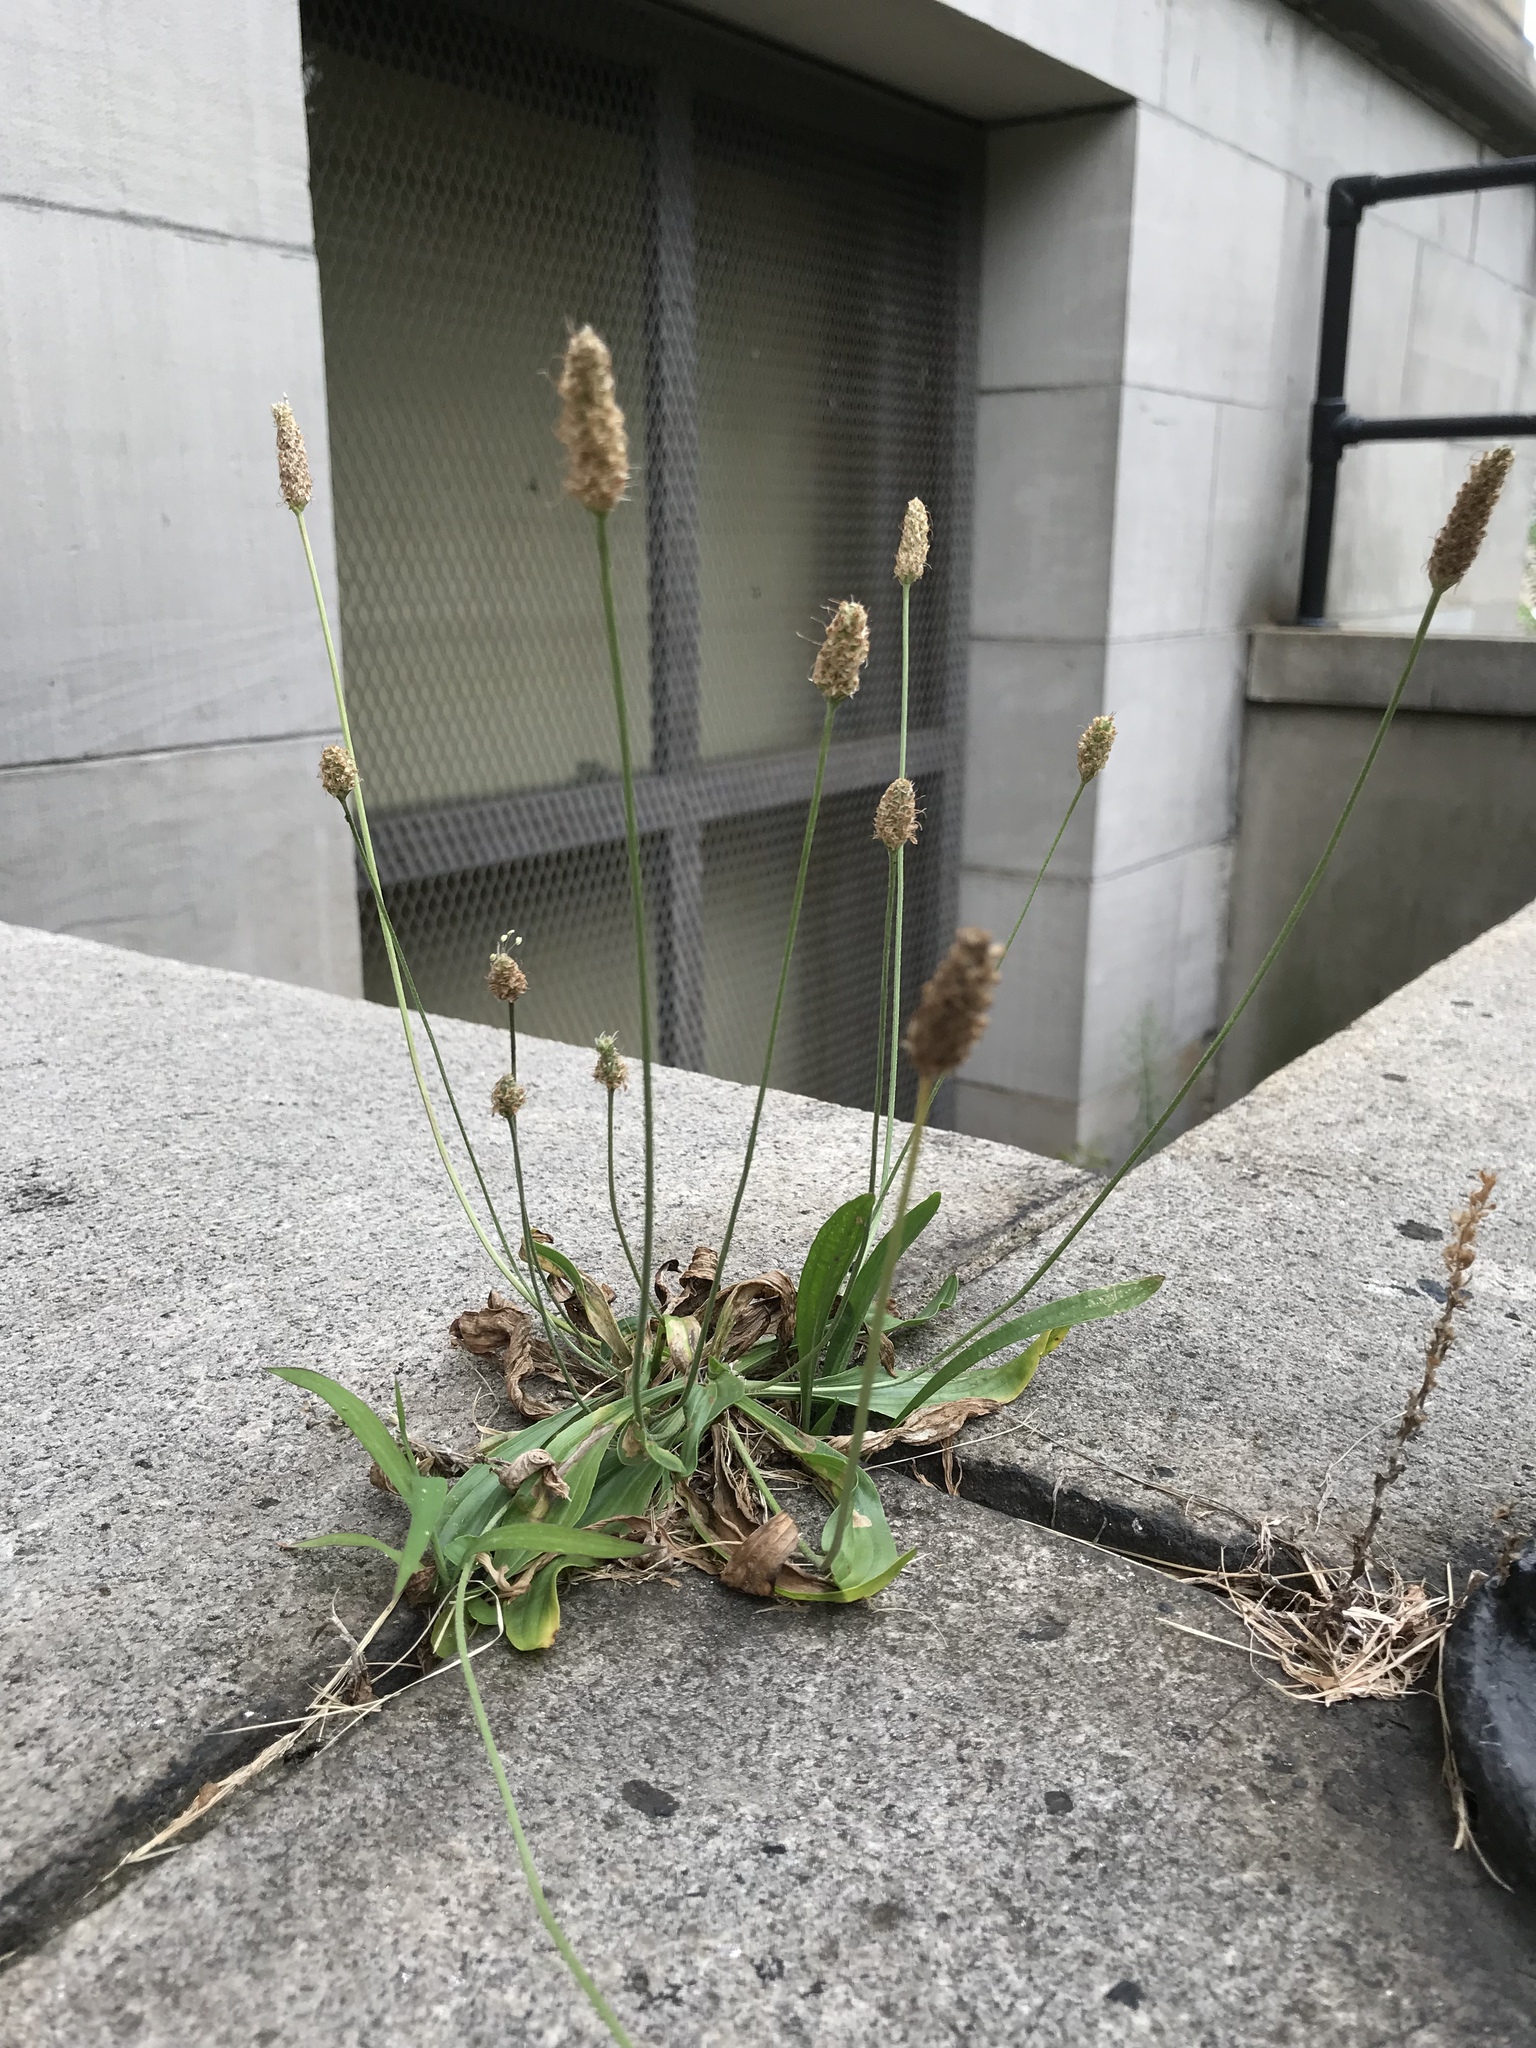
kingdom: Plantae
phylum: Tracheophyta
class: Magnoliopsida
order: Lamiales
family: Plantaginaceae
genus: Plantago
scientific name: Plantago lanceolata
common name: Ribwort plantain
